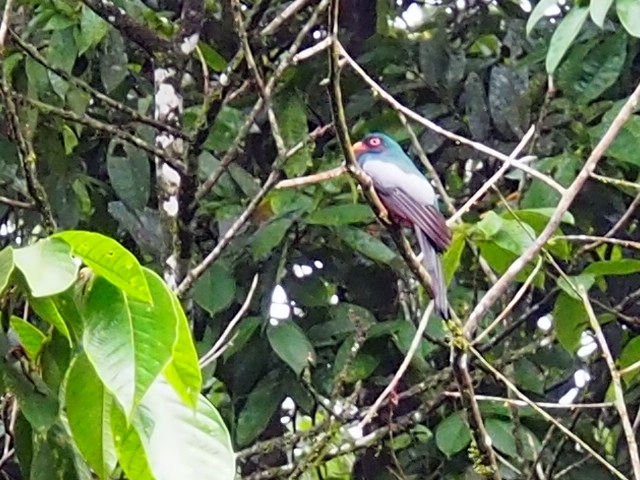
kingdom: Animalia
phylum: Chordata
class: Aves
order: Trogoniformes
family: Trogonidae
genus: Trogon
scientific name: Trogon massena
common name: Slaty-tailed trogon
